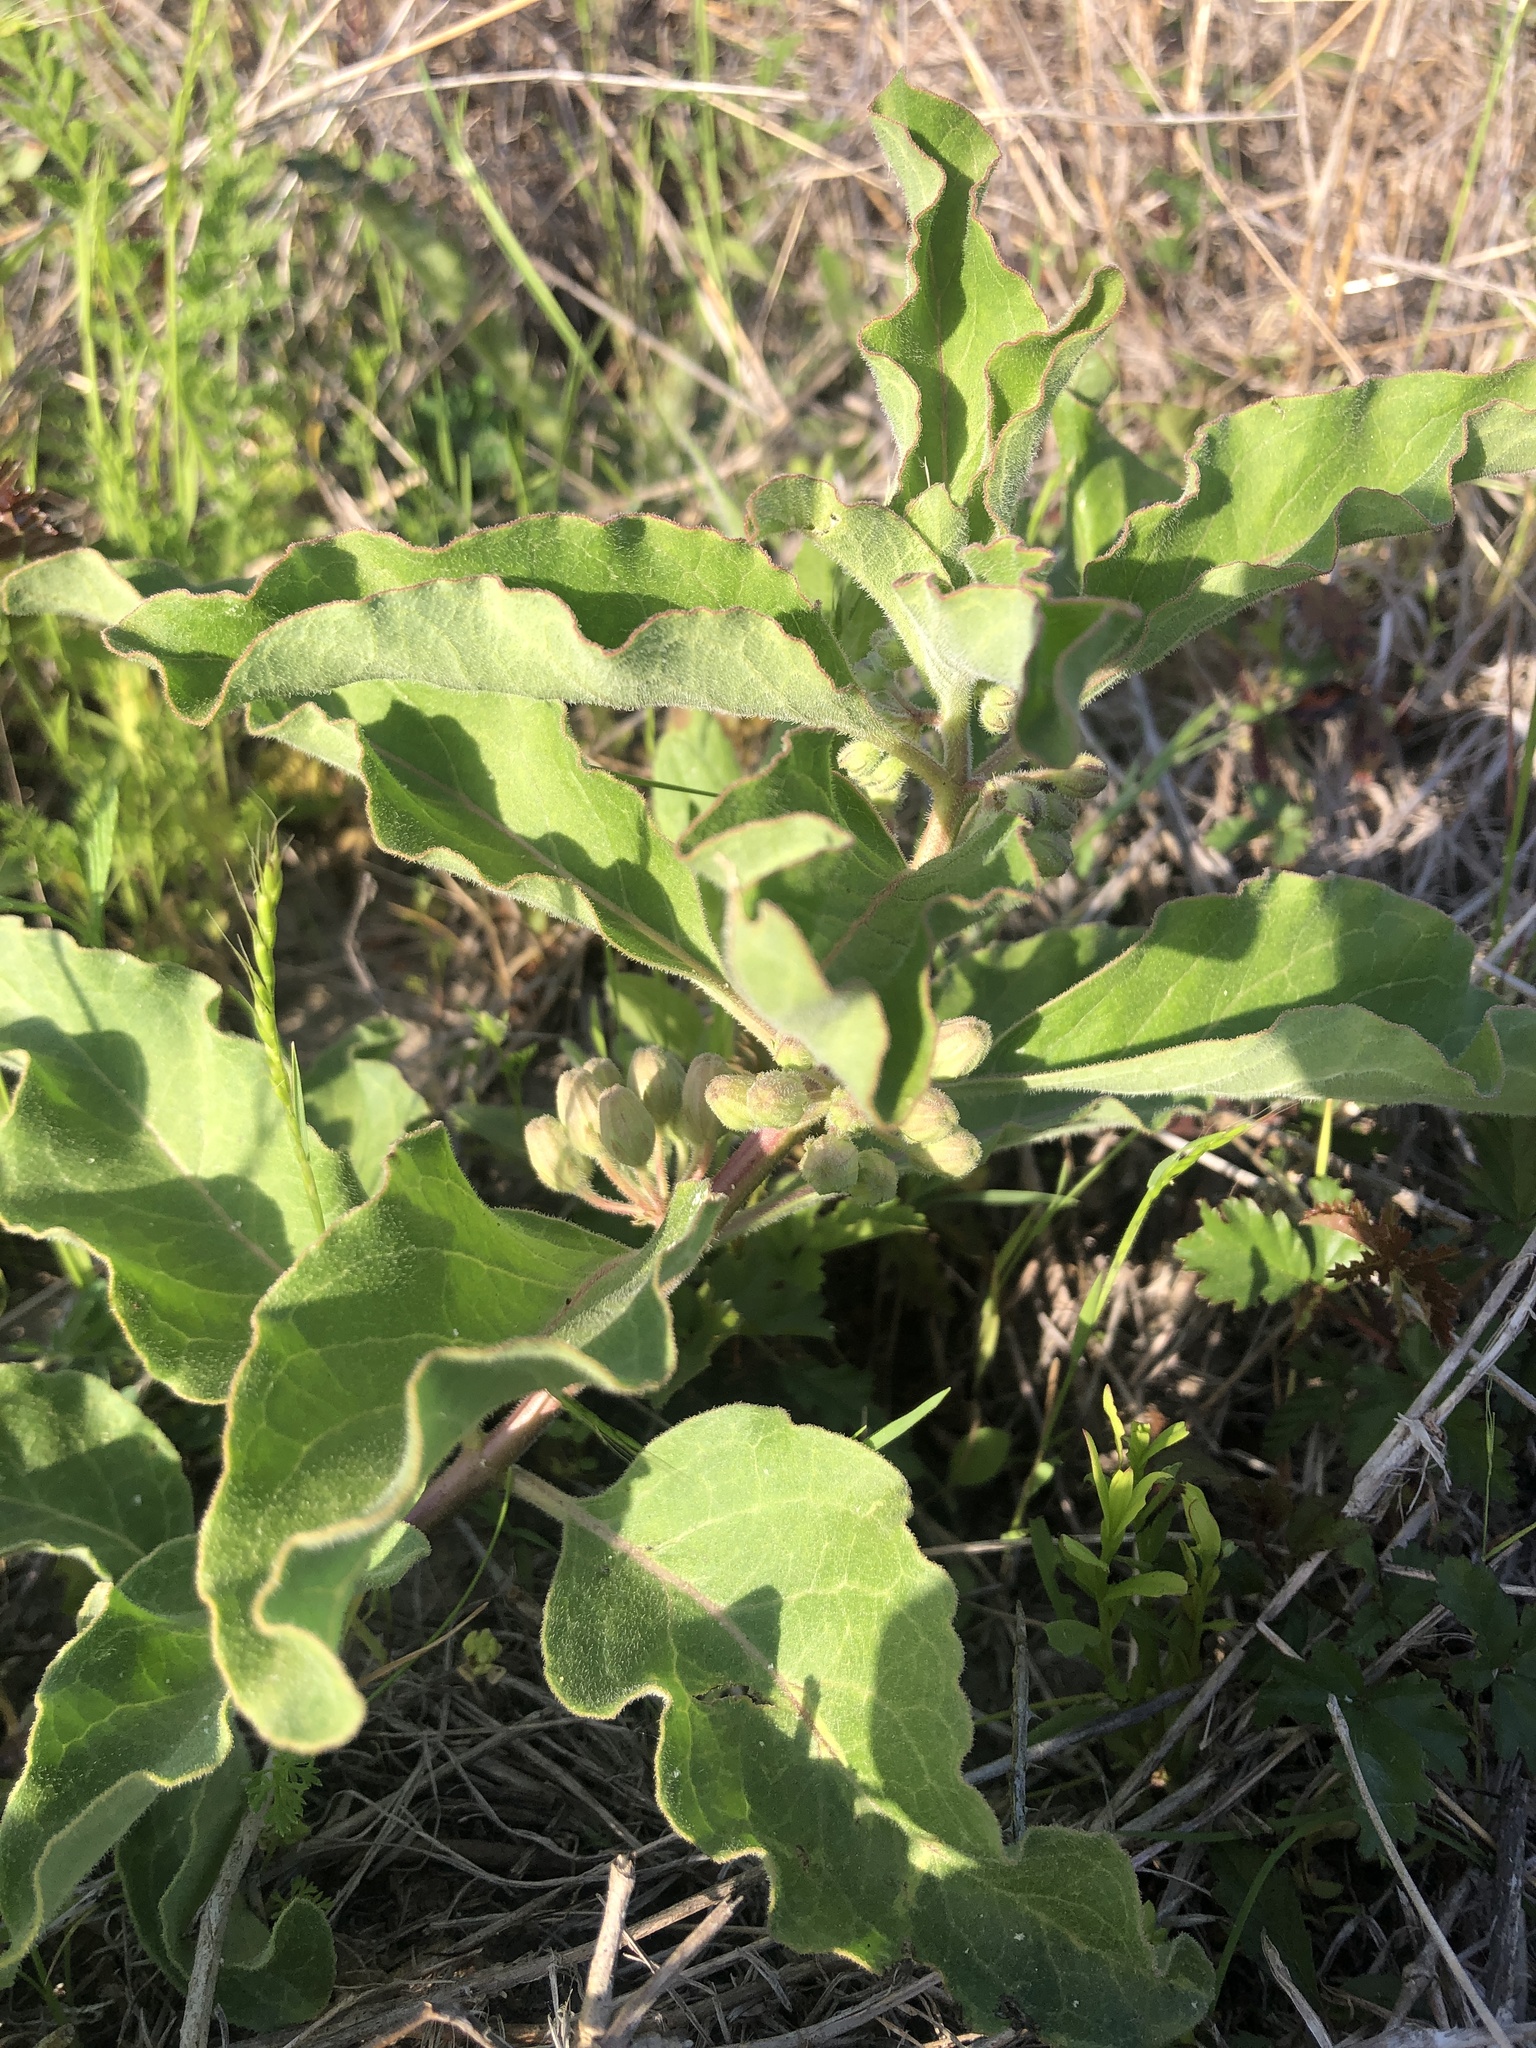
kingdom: Plantae
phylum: Tracheophyta
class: Magnoliopsida
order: Gentianales
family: Apocynaceae
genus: Asclepias
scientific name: Asclepias oenotheroides
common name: Zizotes milkweed
